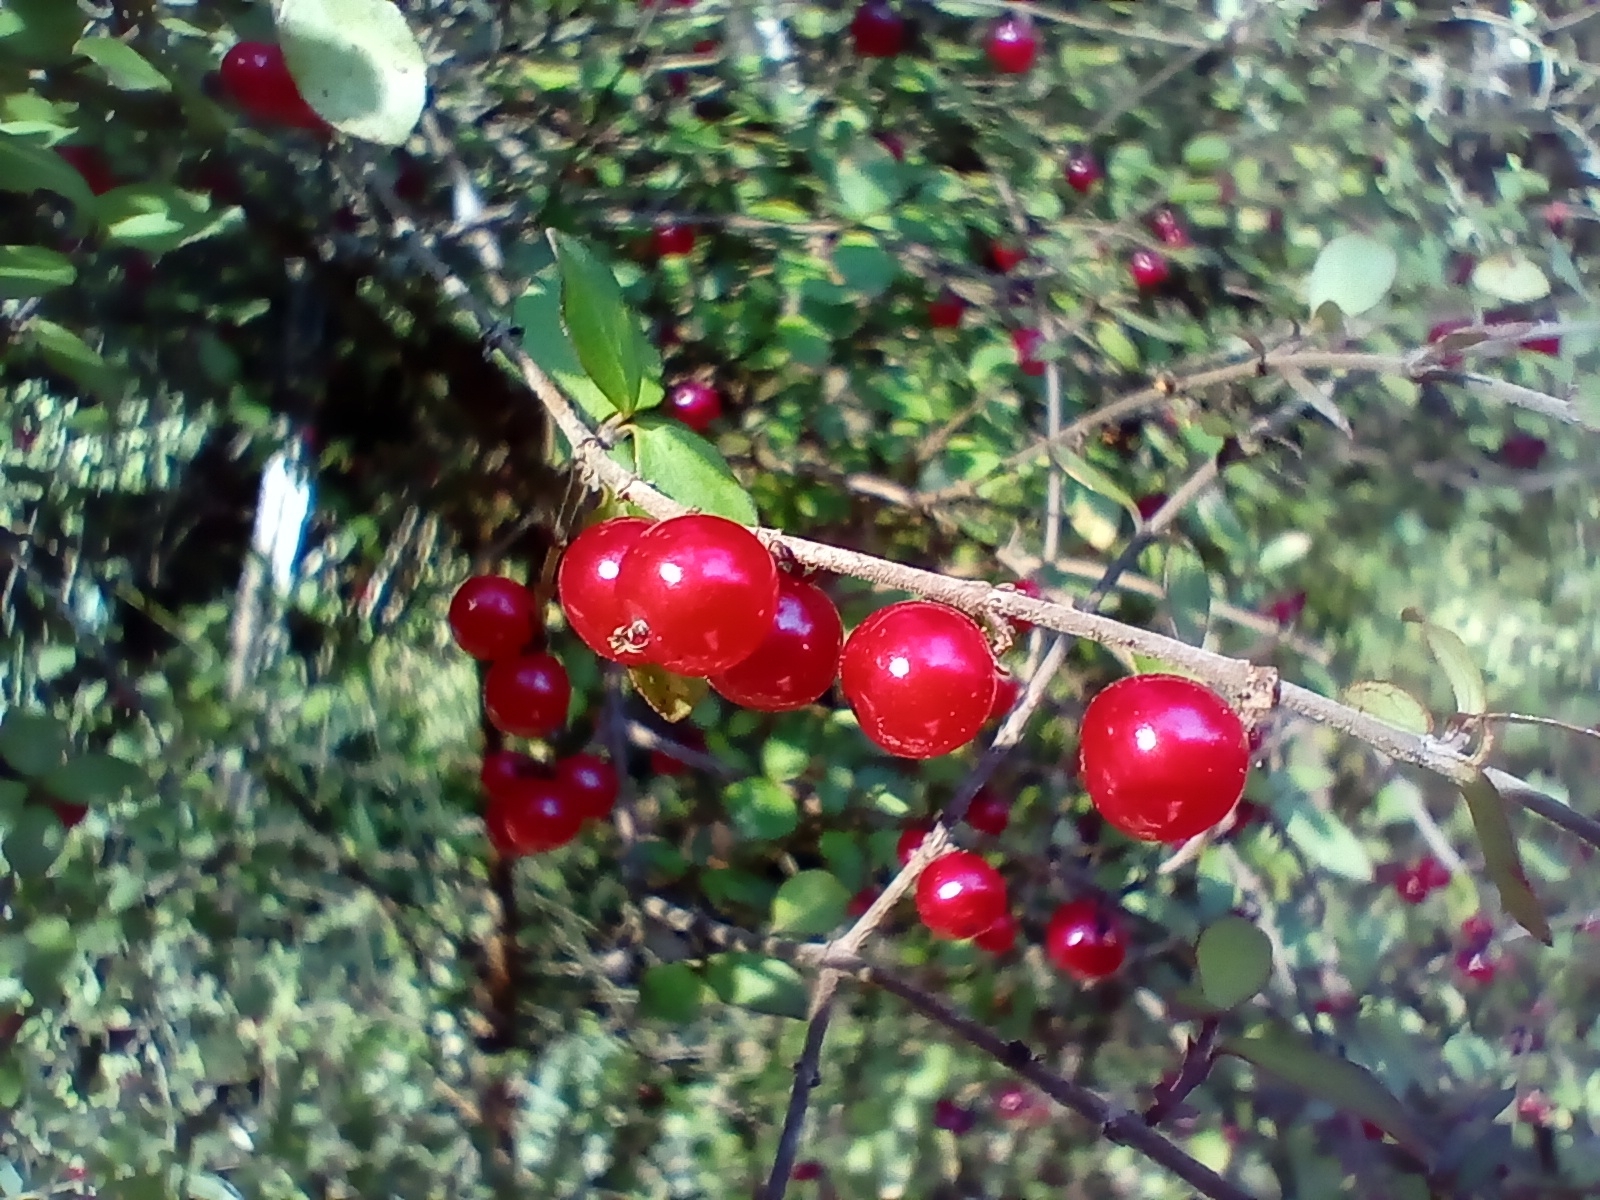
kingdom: Plantae
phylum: Tracheophyta
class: Magnoliopsida
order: Gentianales
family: Rubiaceae
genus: Coprosma
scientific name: Coprosma rhamnoides
